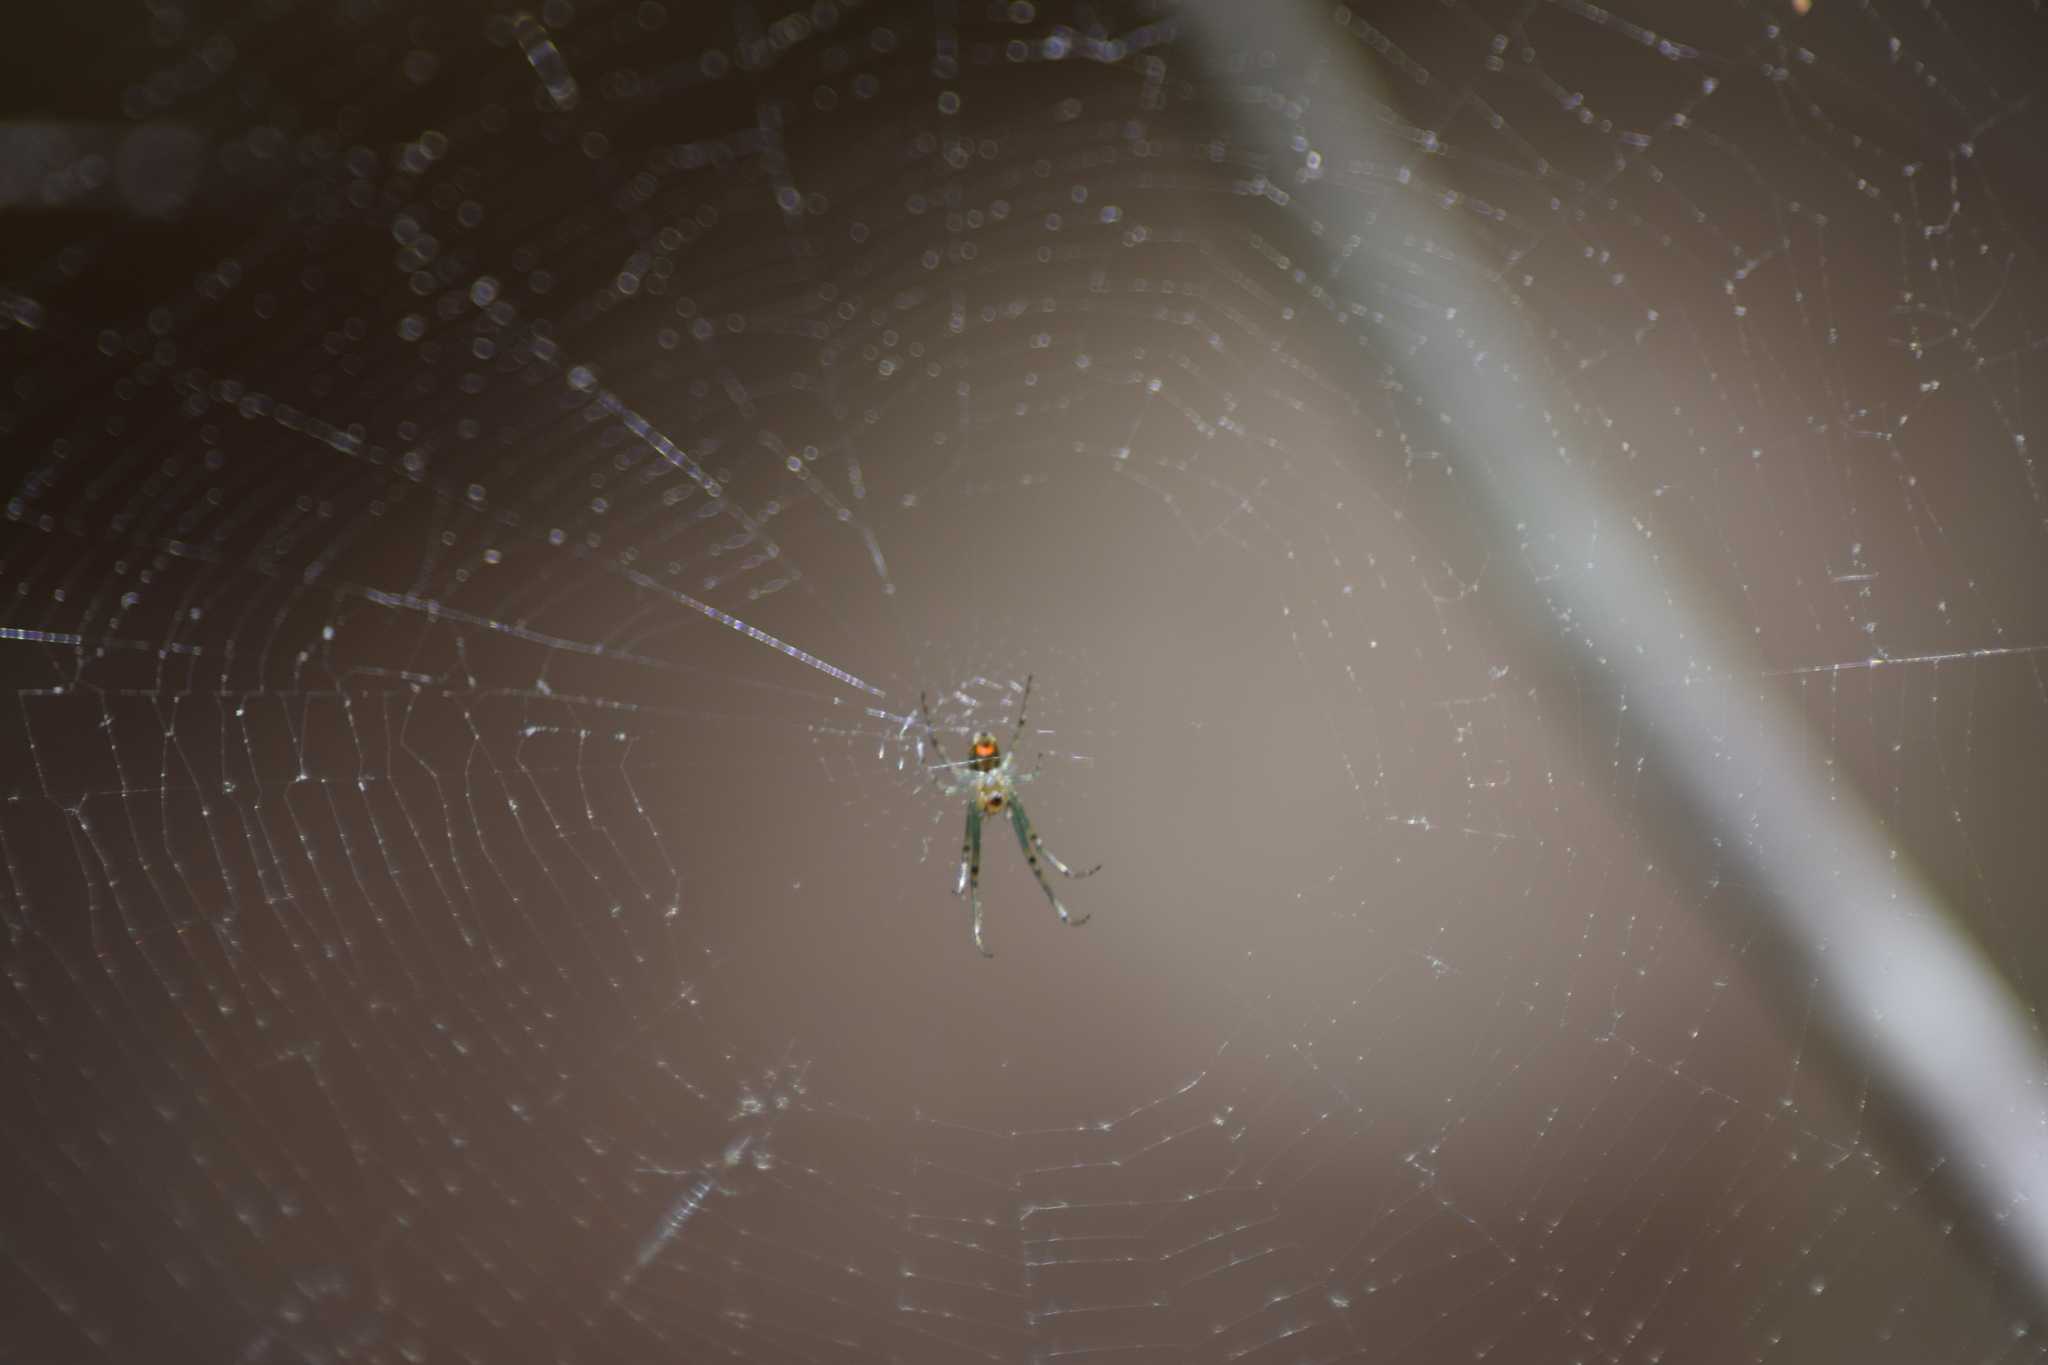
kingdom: Animalia
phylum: Arthropoda
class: Arachnida
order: Araneae
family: Tetragnathidae
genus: Leucauge
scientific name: Leucauge venusta
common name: Longjawed orb weavers
